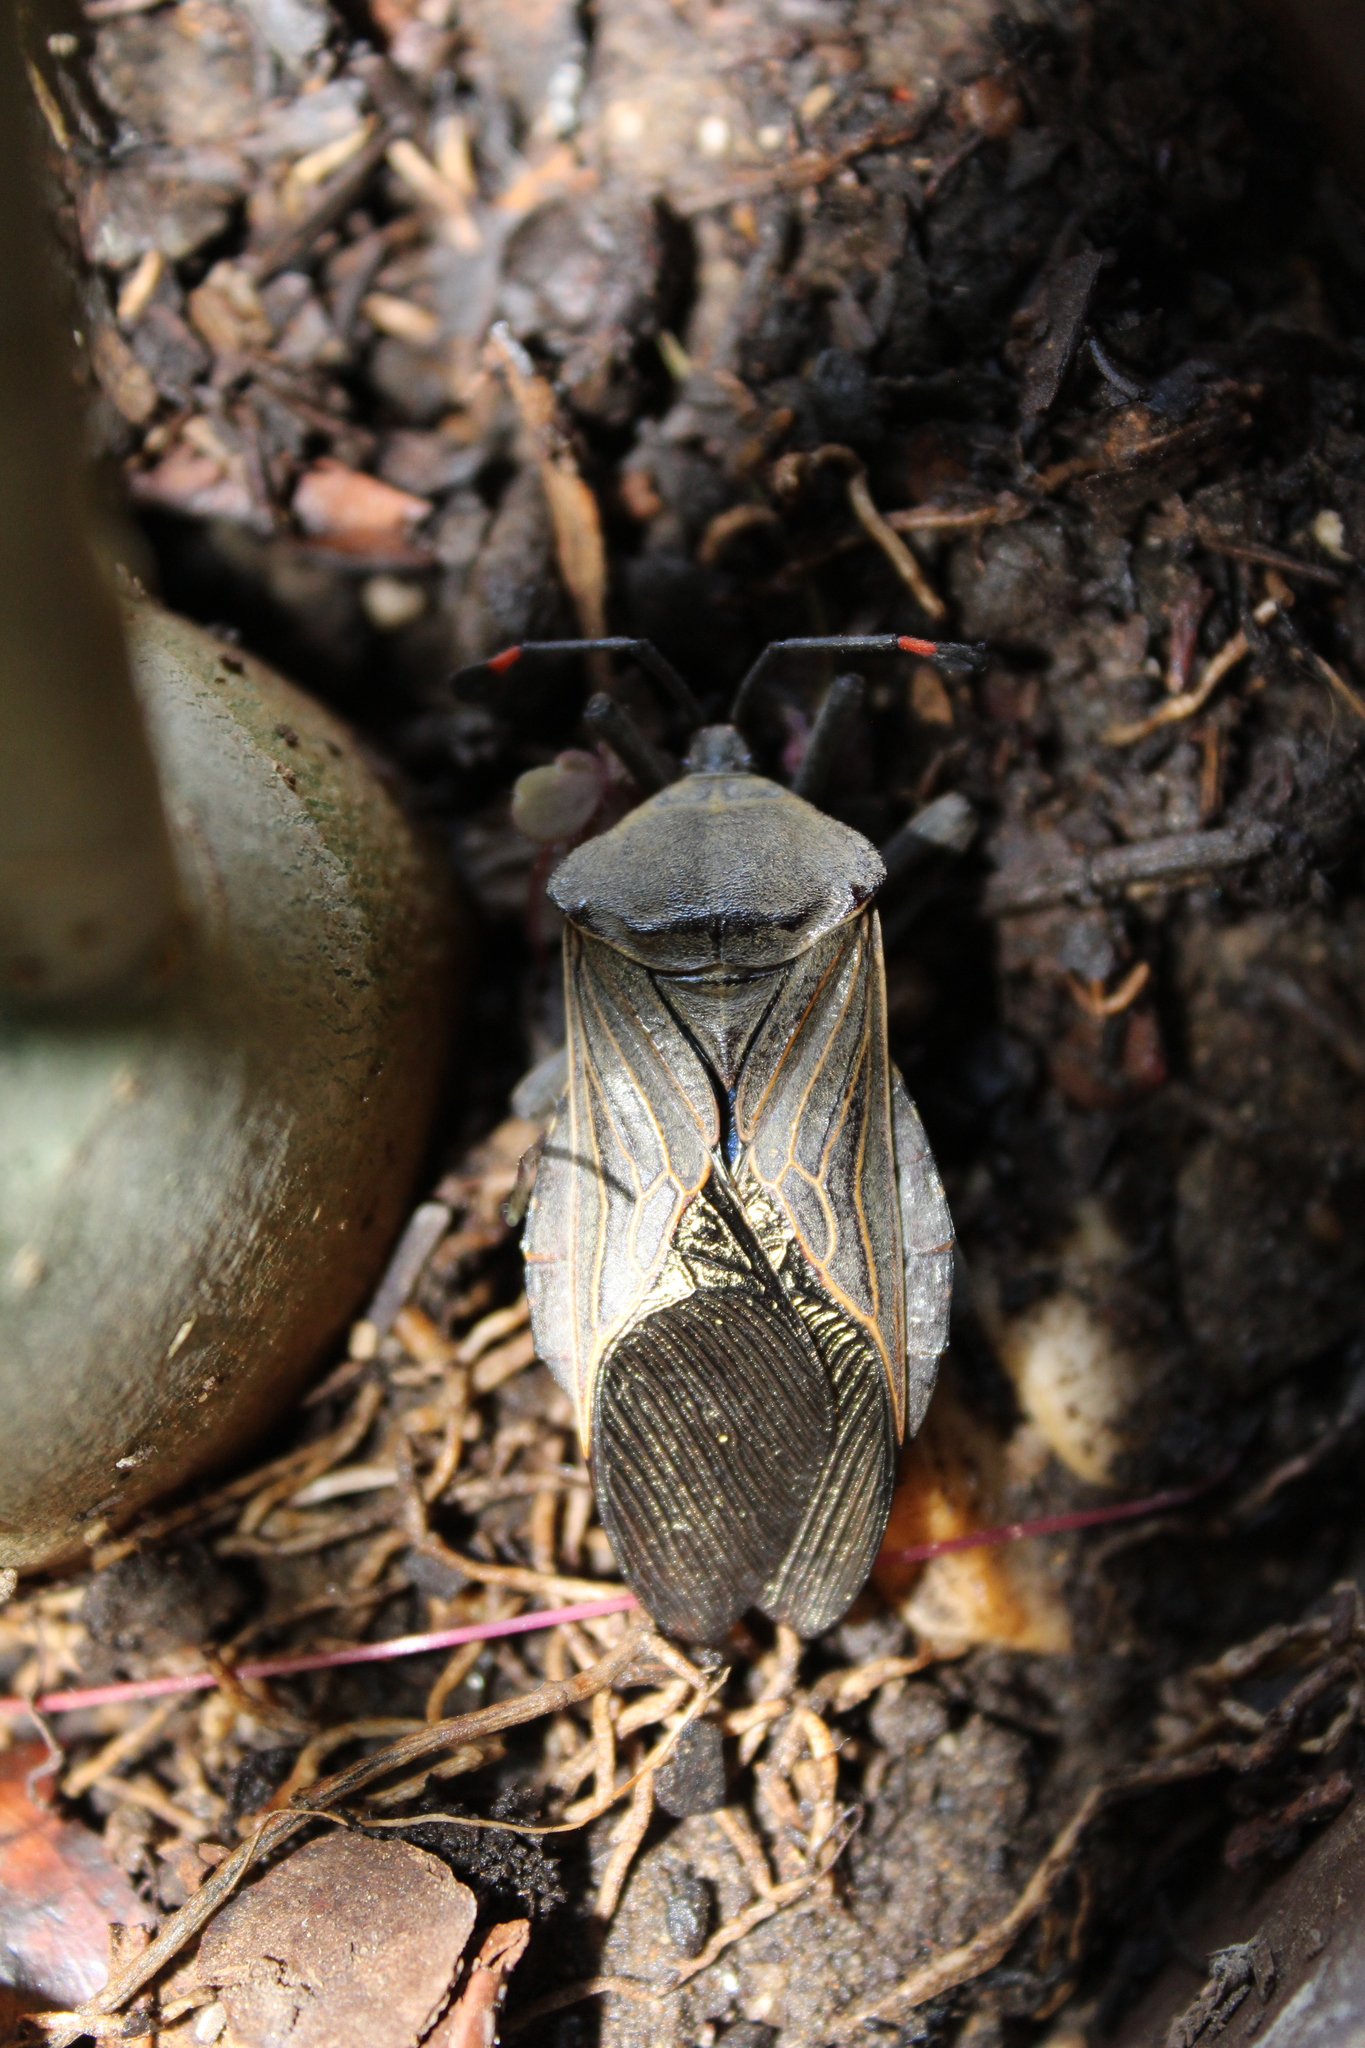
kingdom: Animalia
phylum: Arthropoda
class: Insecta
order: Hemiptera
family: Coreidae
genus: Pachylis
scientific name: Pachylis nervosus
